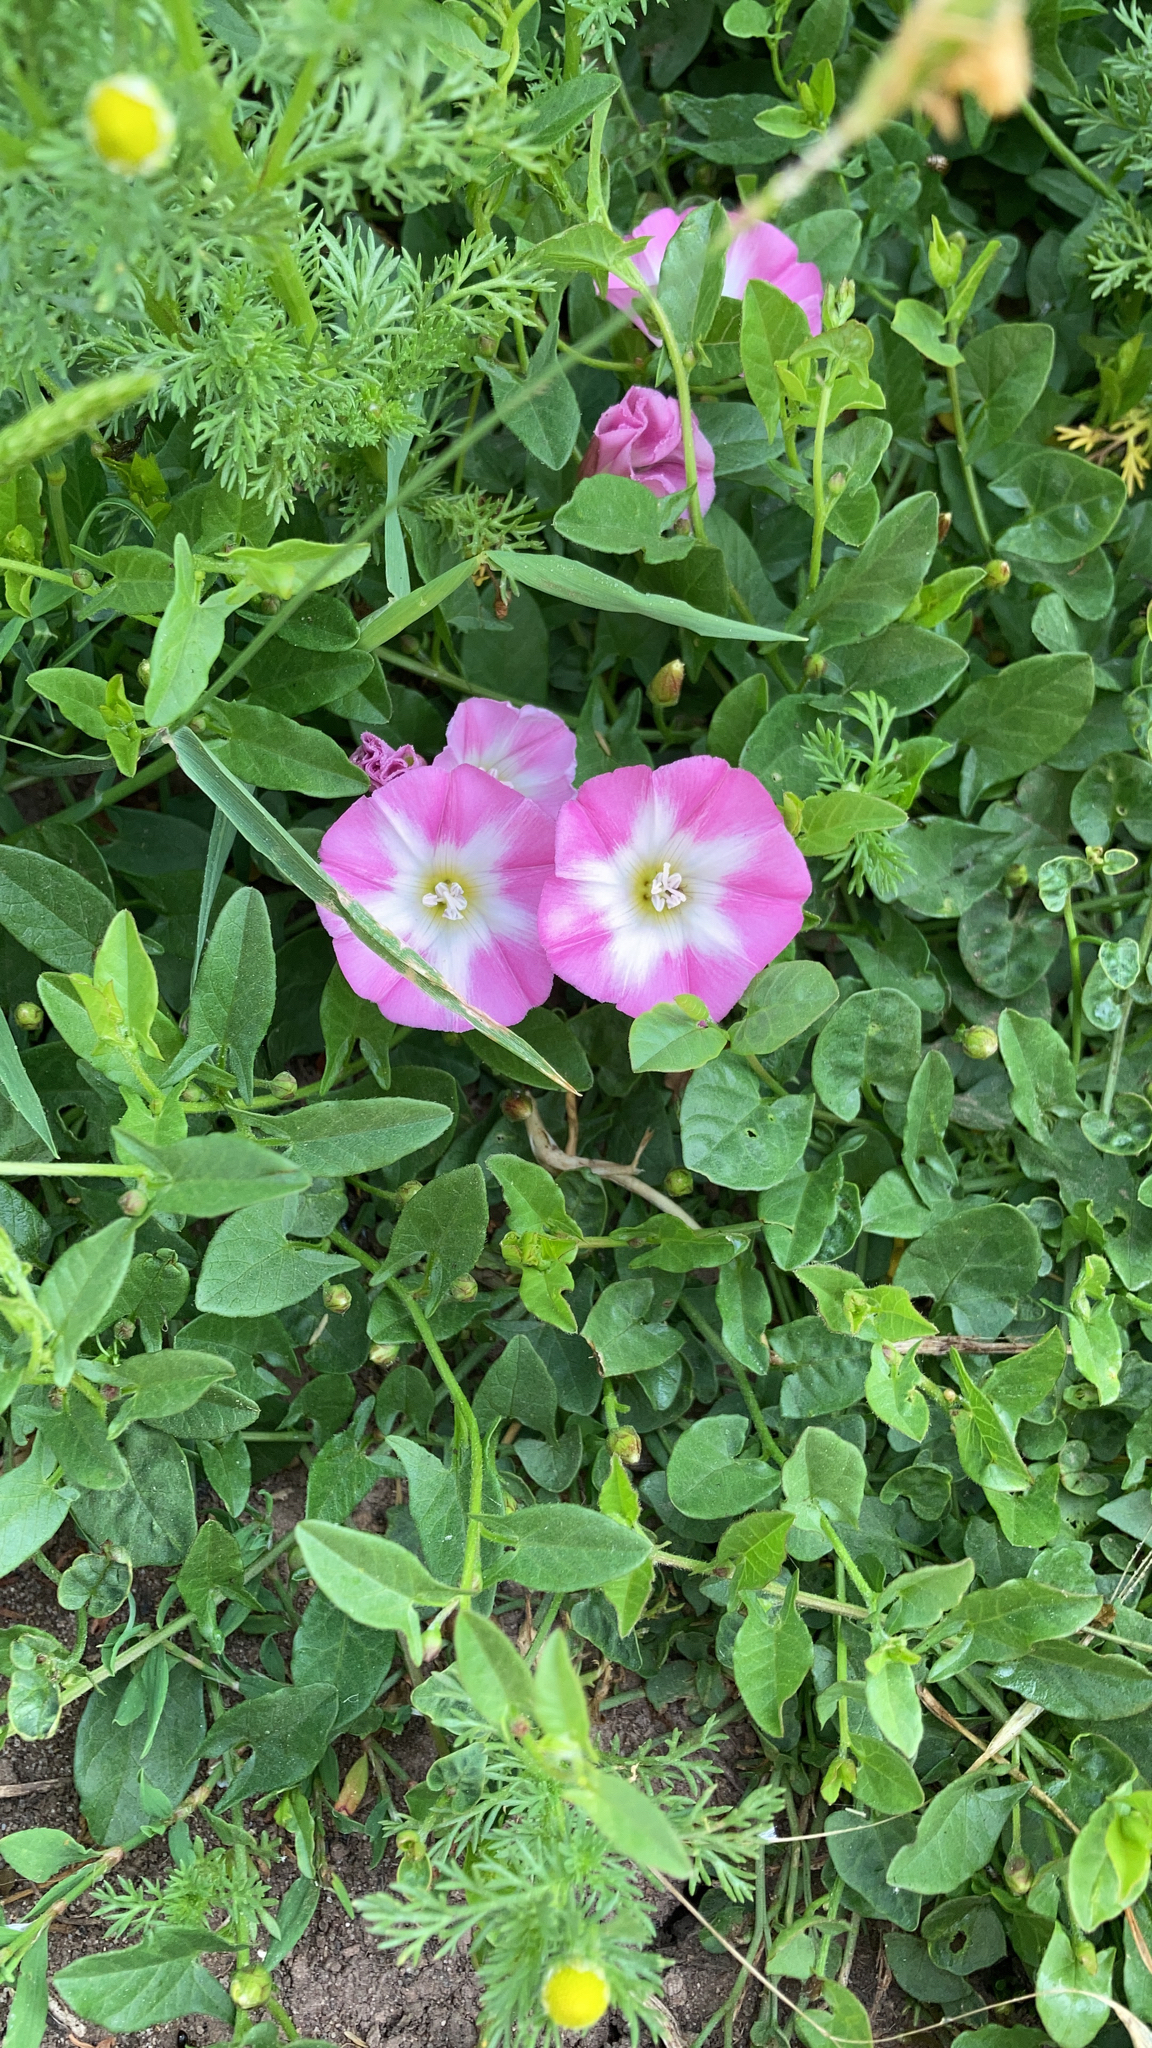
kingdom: Plantae
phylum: Tracheophyta
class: Magnoliopsida
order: Solanales
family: Convolvulaceae
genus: Convolvulus
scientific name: Convolvulus arvensis
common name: Field bindweed
